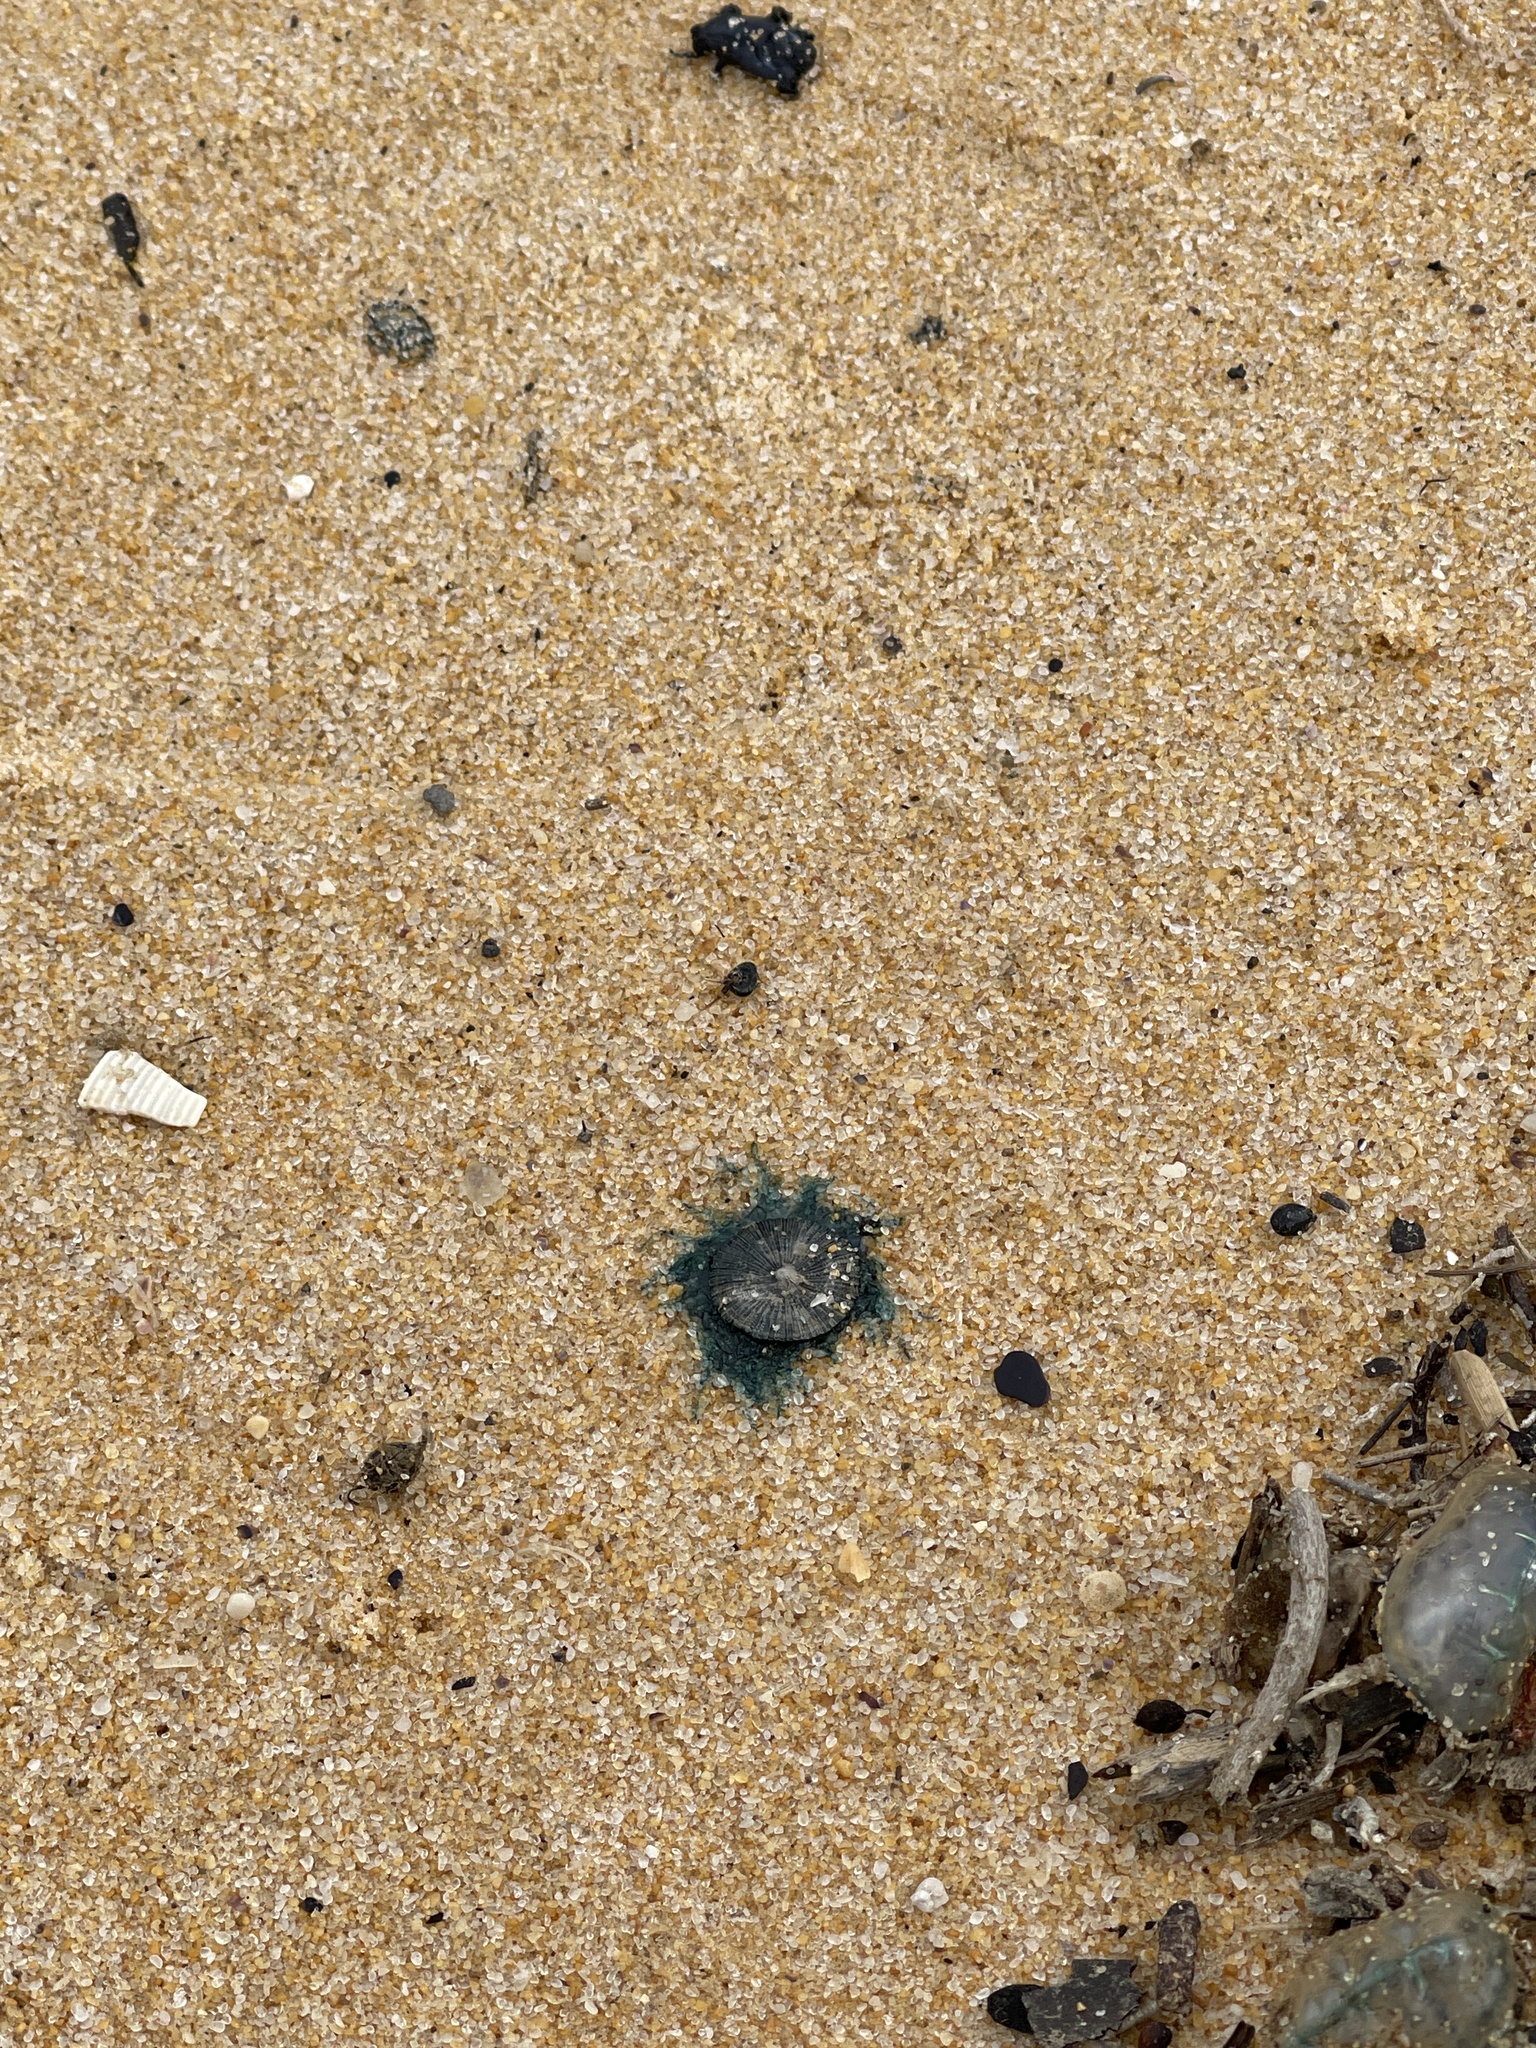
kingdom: Animalia
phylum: Cnidaria
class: Hydrozoa
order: Anthoathecata
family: Porpitidae
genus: Porpita
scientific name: Porpita porpita
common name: Blue button
